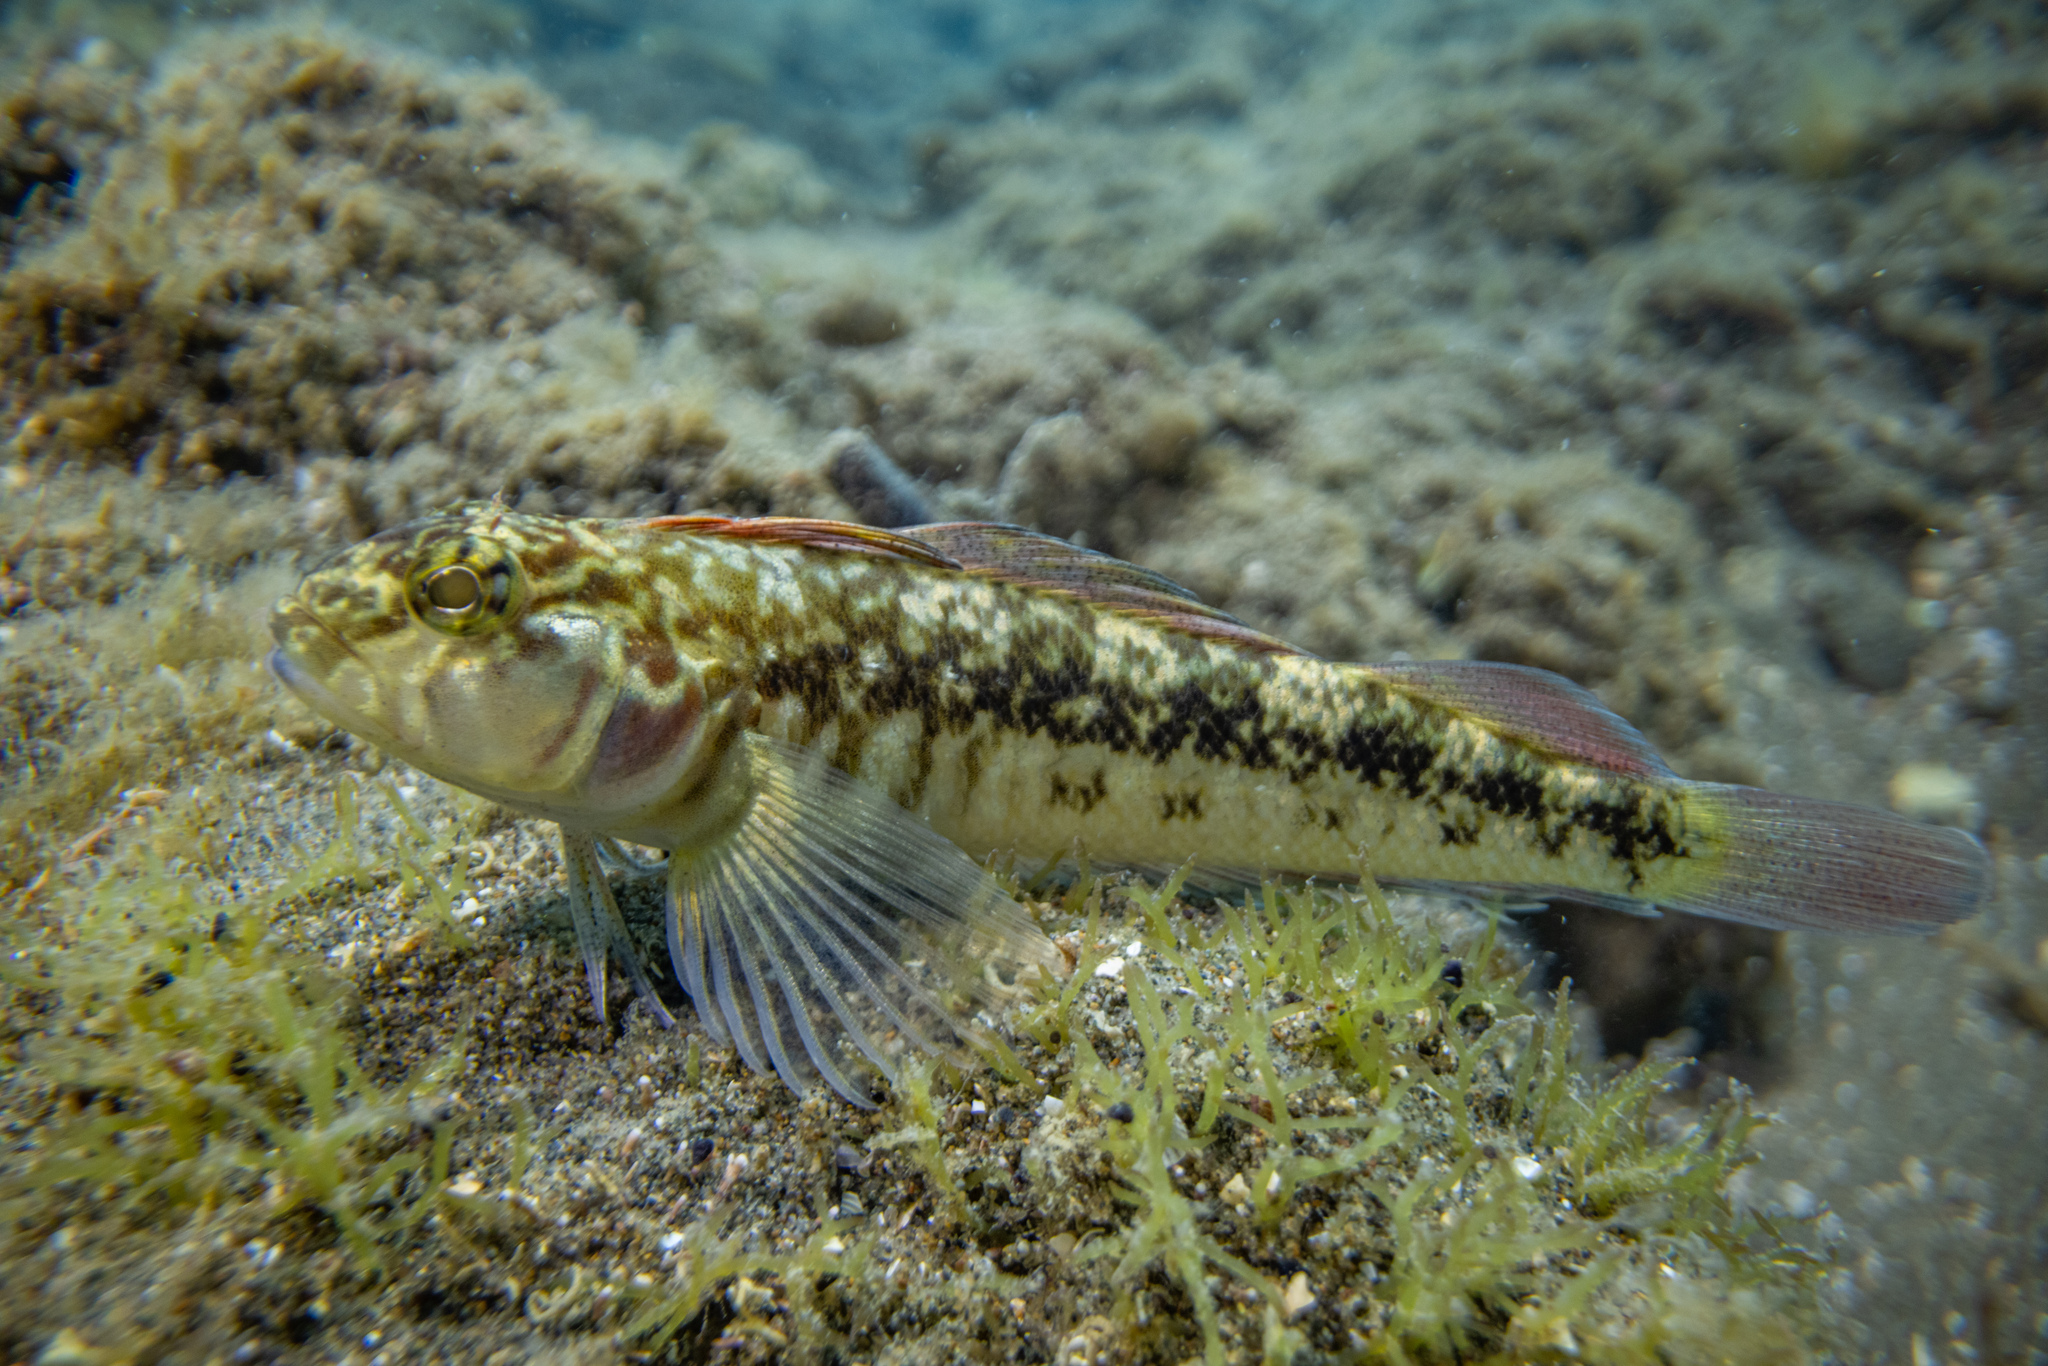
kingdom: Animalia
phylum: Chordata
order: Perciformes
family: Tripterygiidae
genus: Forsterygion
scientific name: Forsterygion nigripenne
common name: Cockabully
